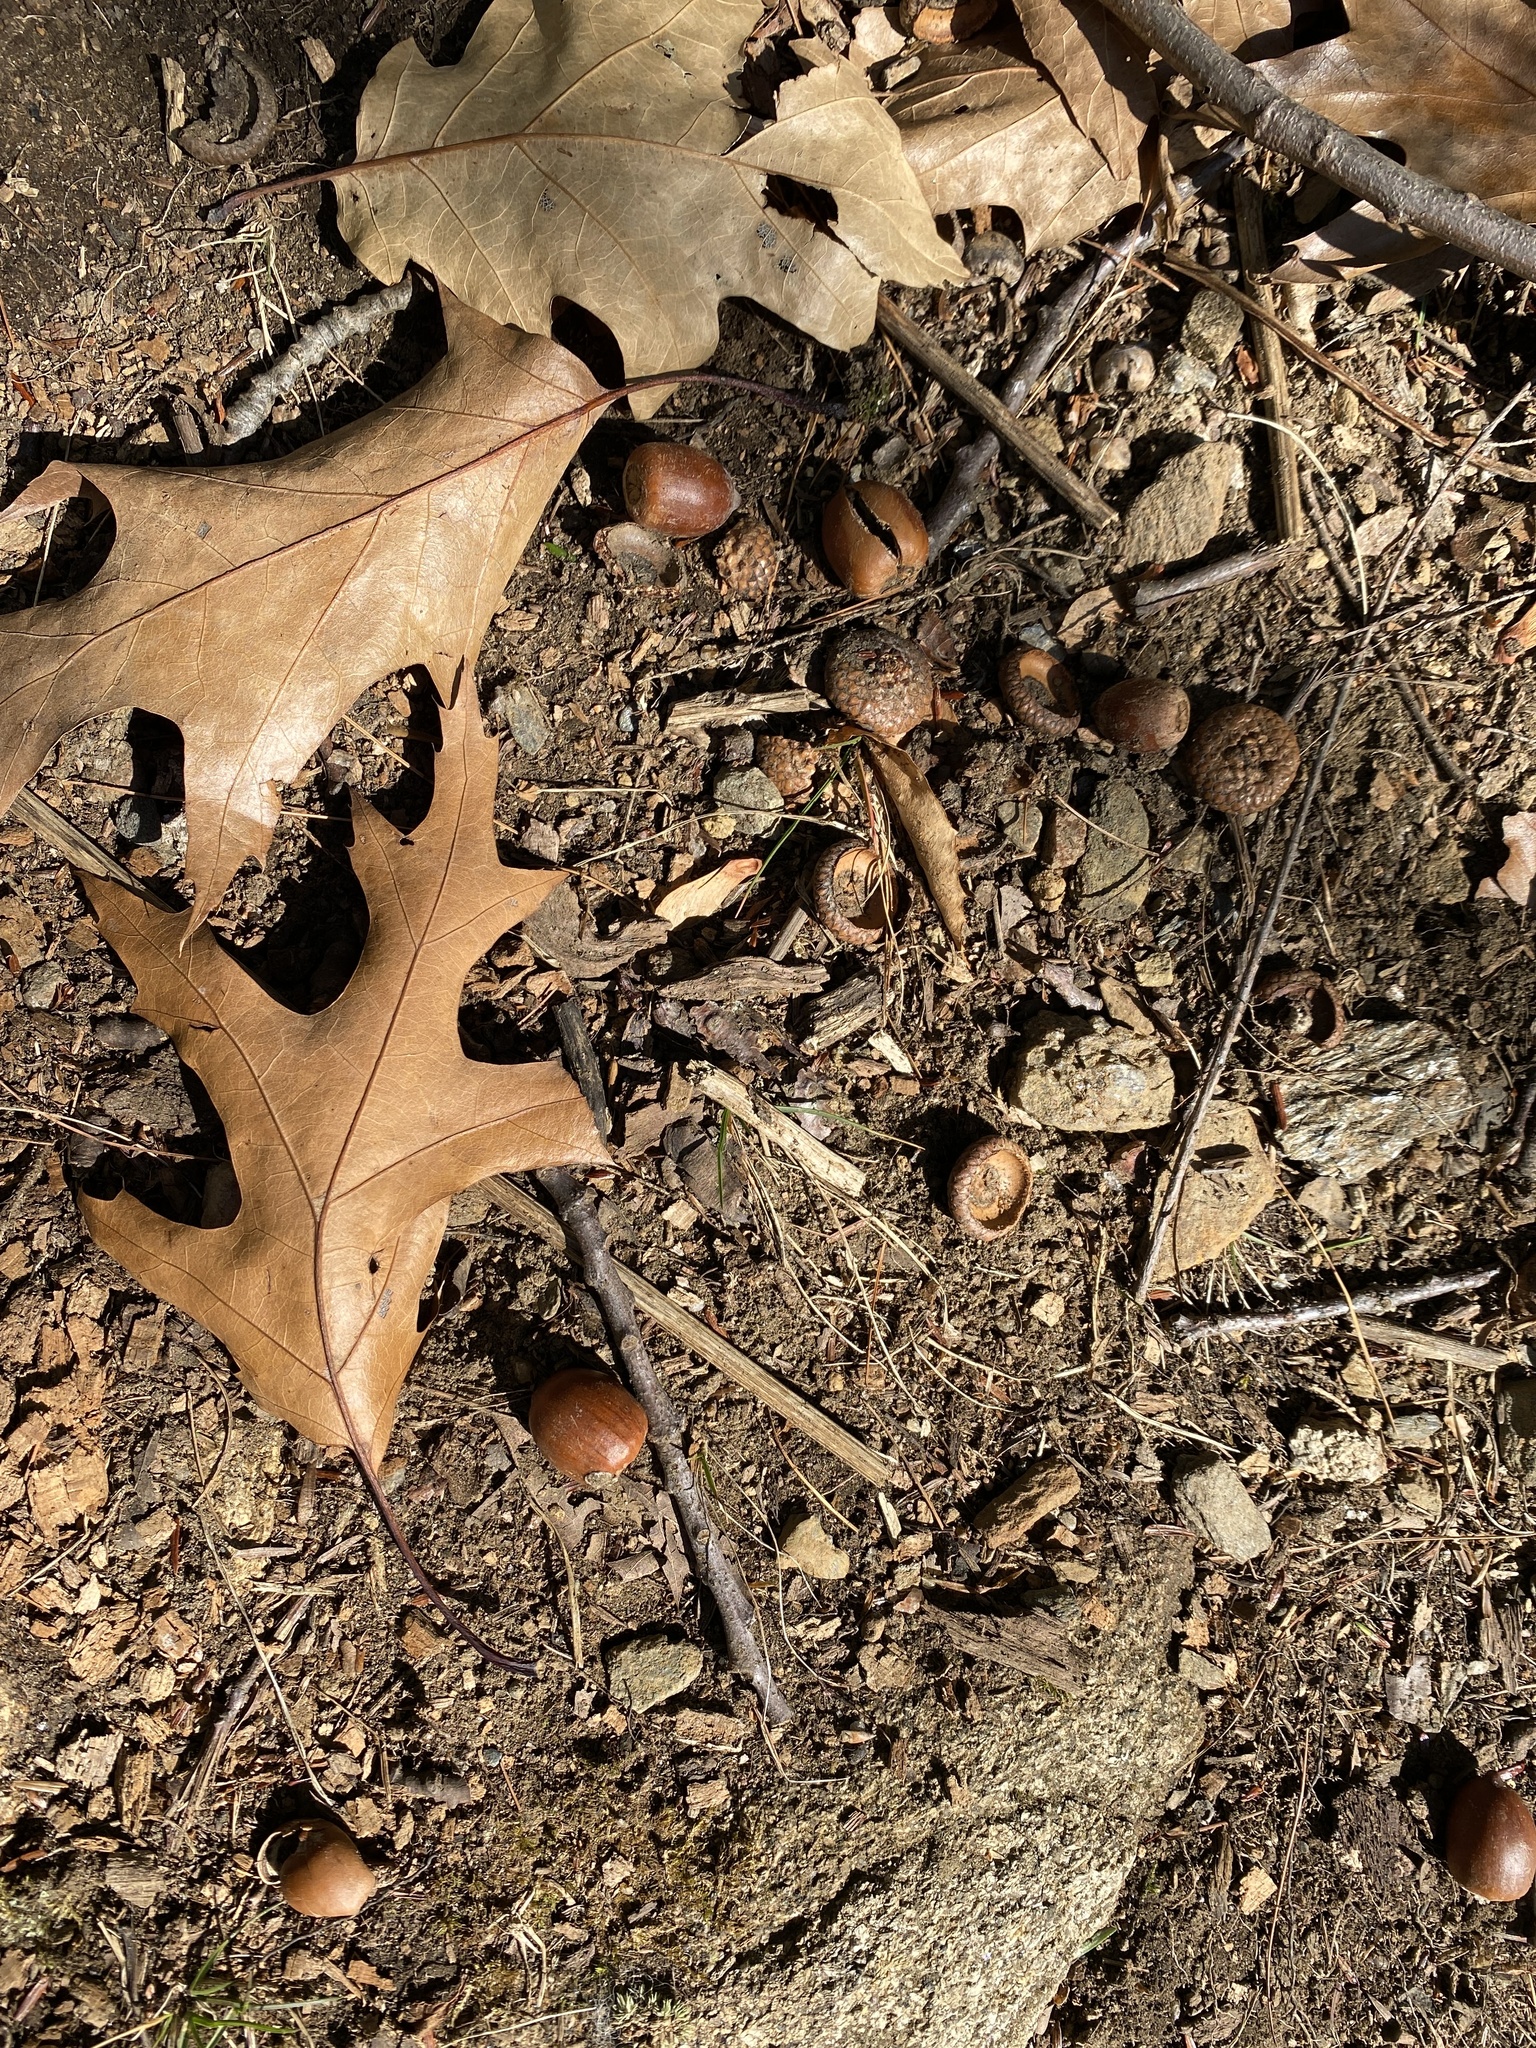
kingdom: Plantae
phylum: Tracheophyta
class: Magnoliopsida
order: Fagales
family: Fagaceae
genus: Quercus
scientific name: Quercus rubra
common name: Red oak
